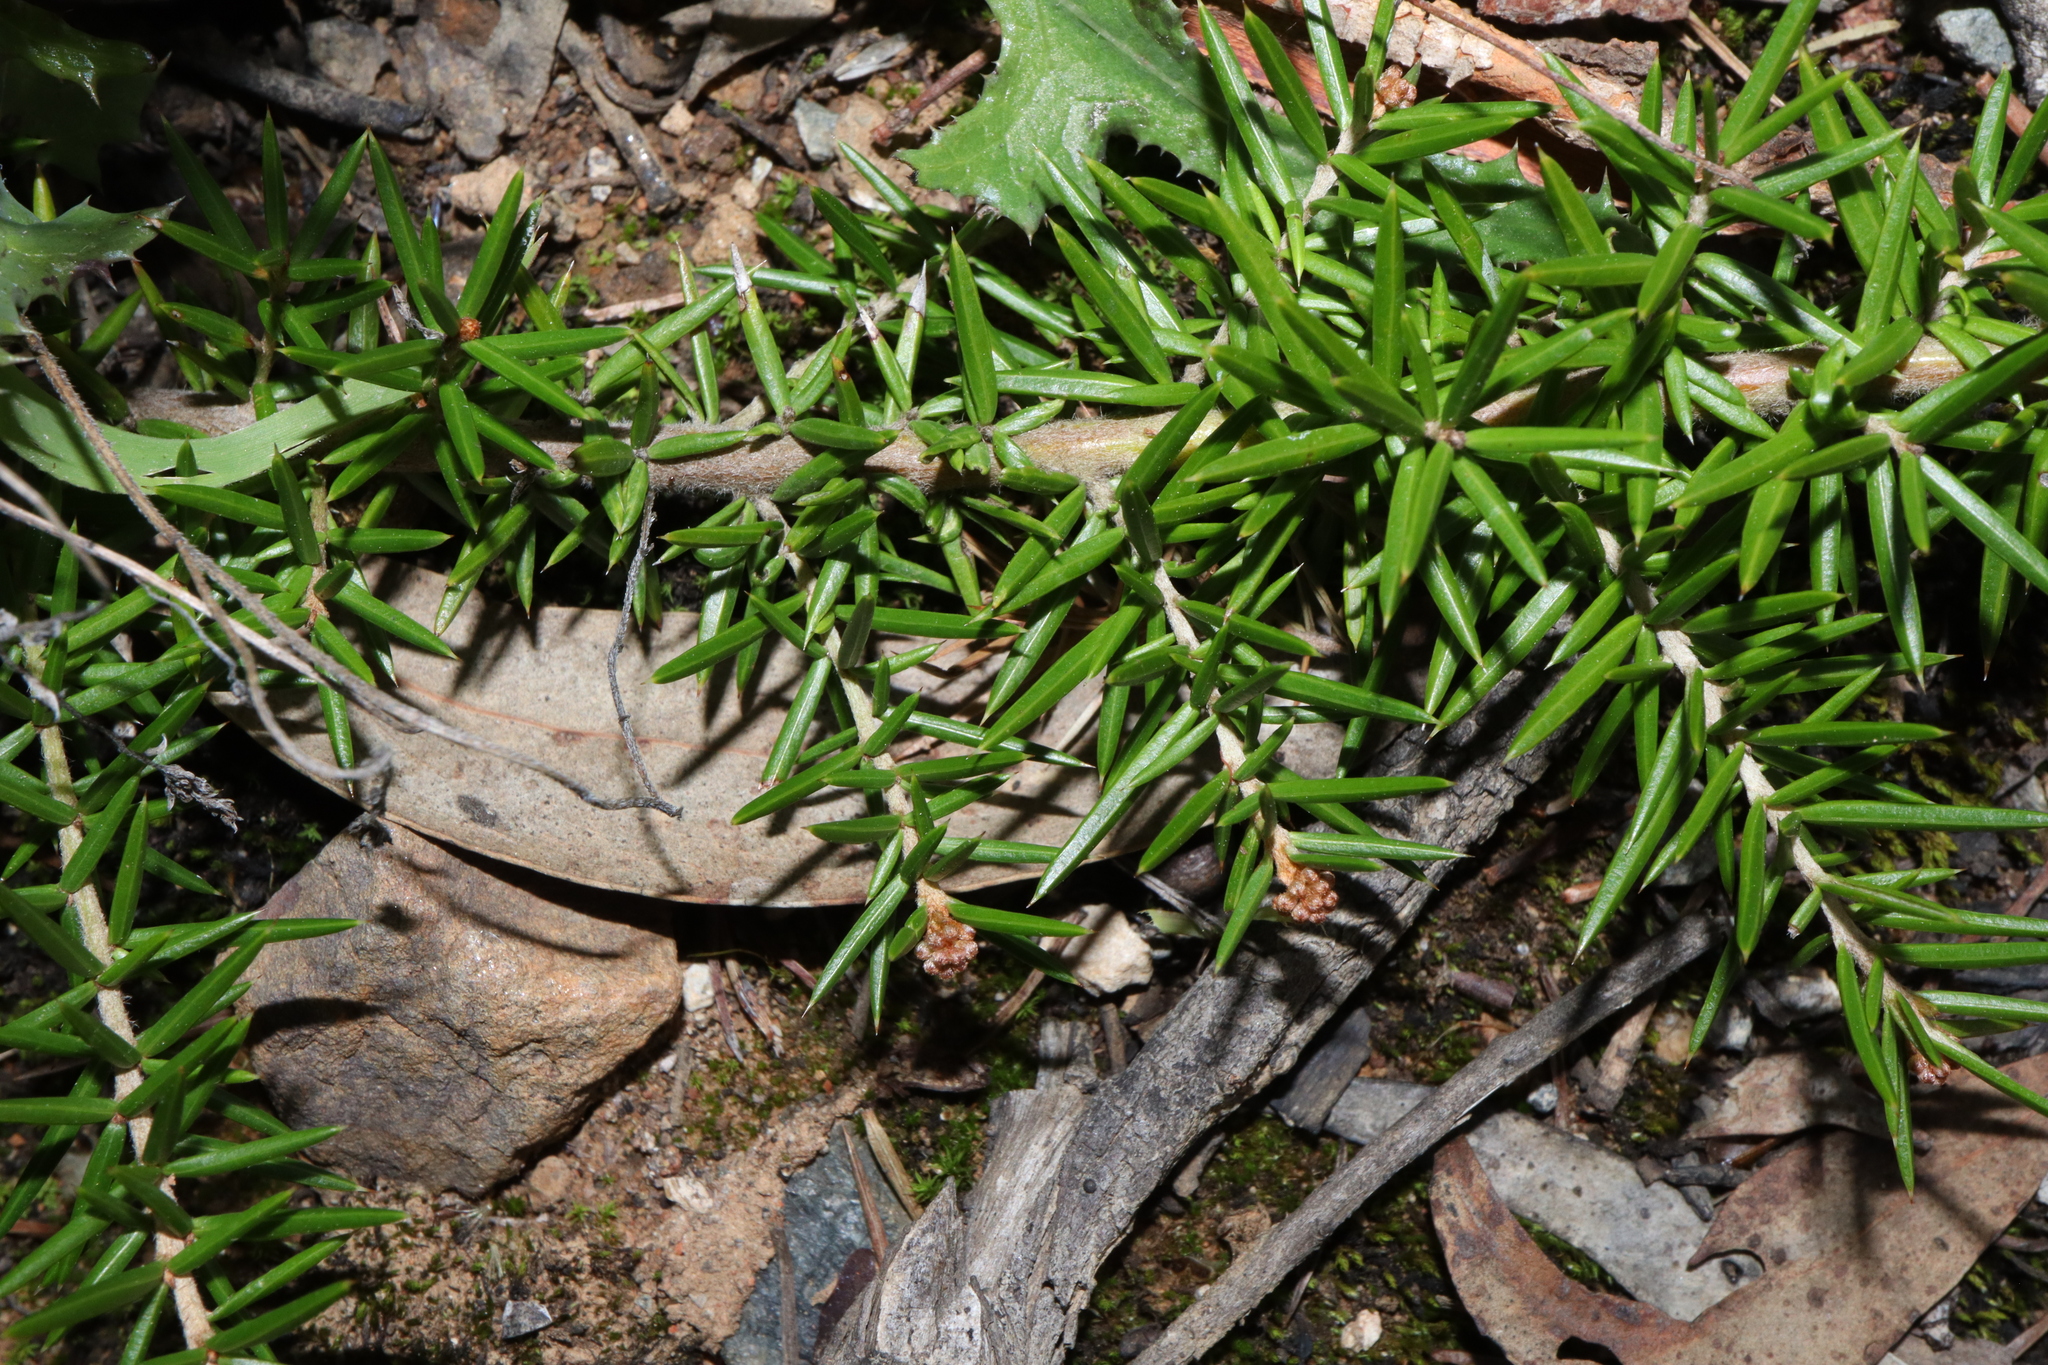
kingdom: Plantae
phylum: Tracheophyta
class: Magnoliopsida
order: Proteales
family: Proteaceae
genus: Grevillea
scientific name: Grevillea juniperina
